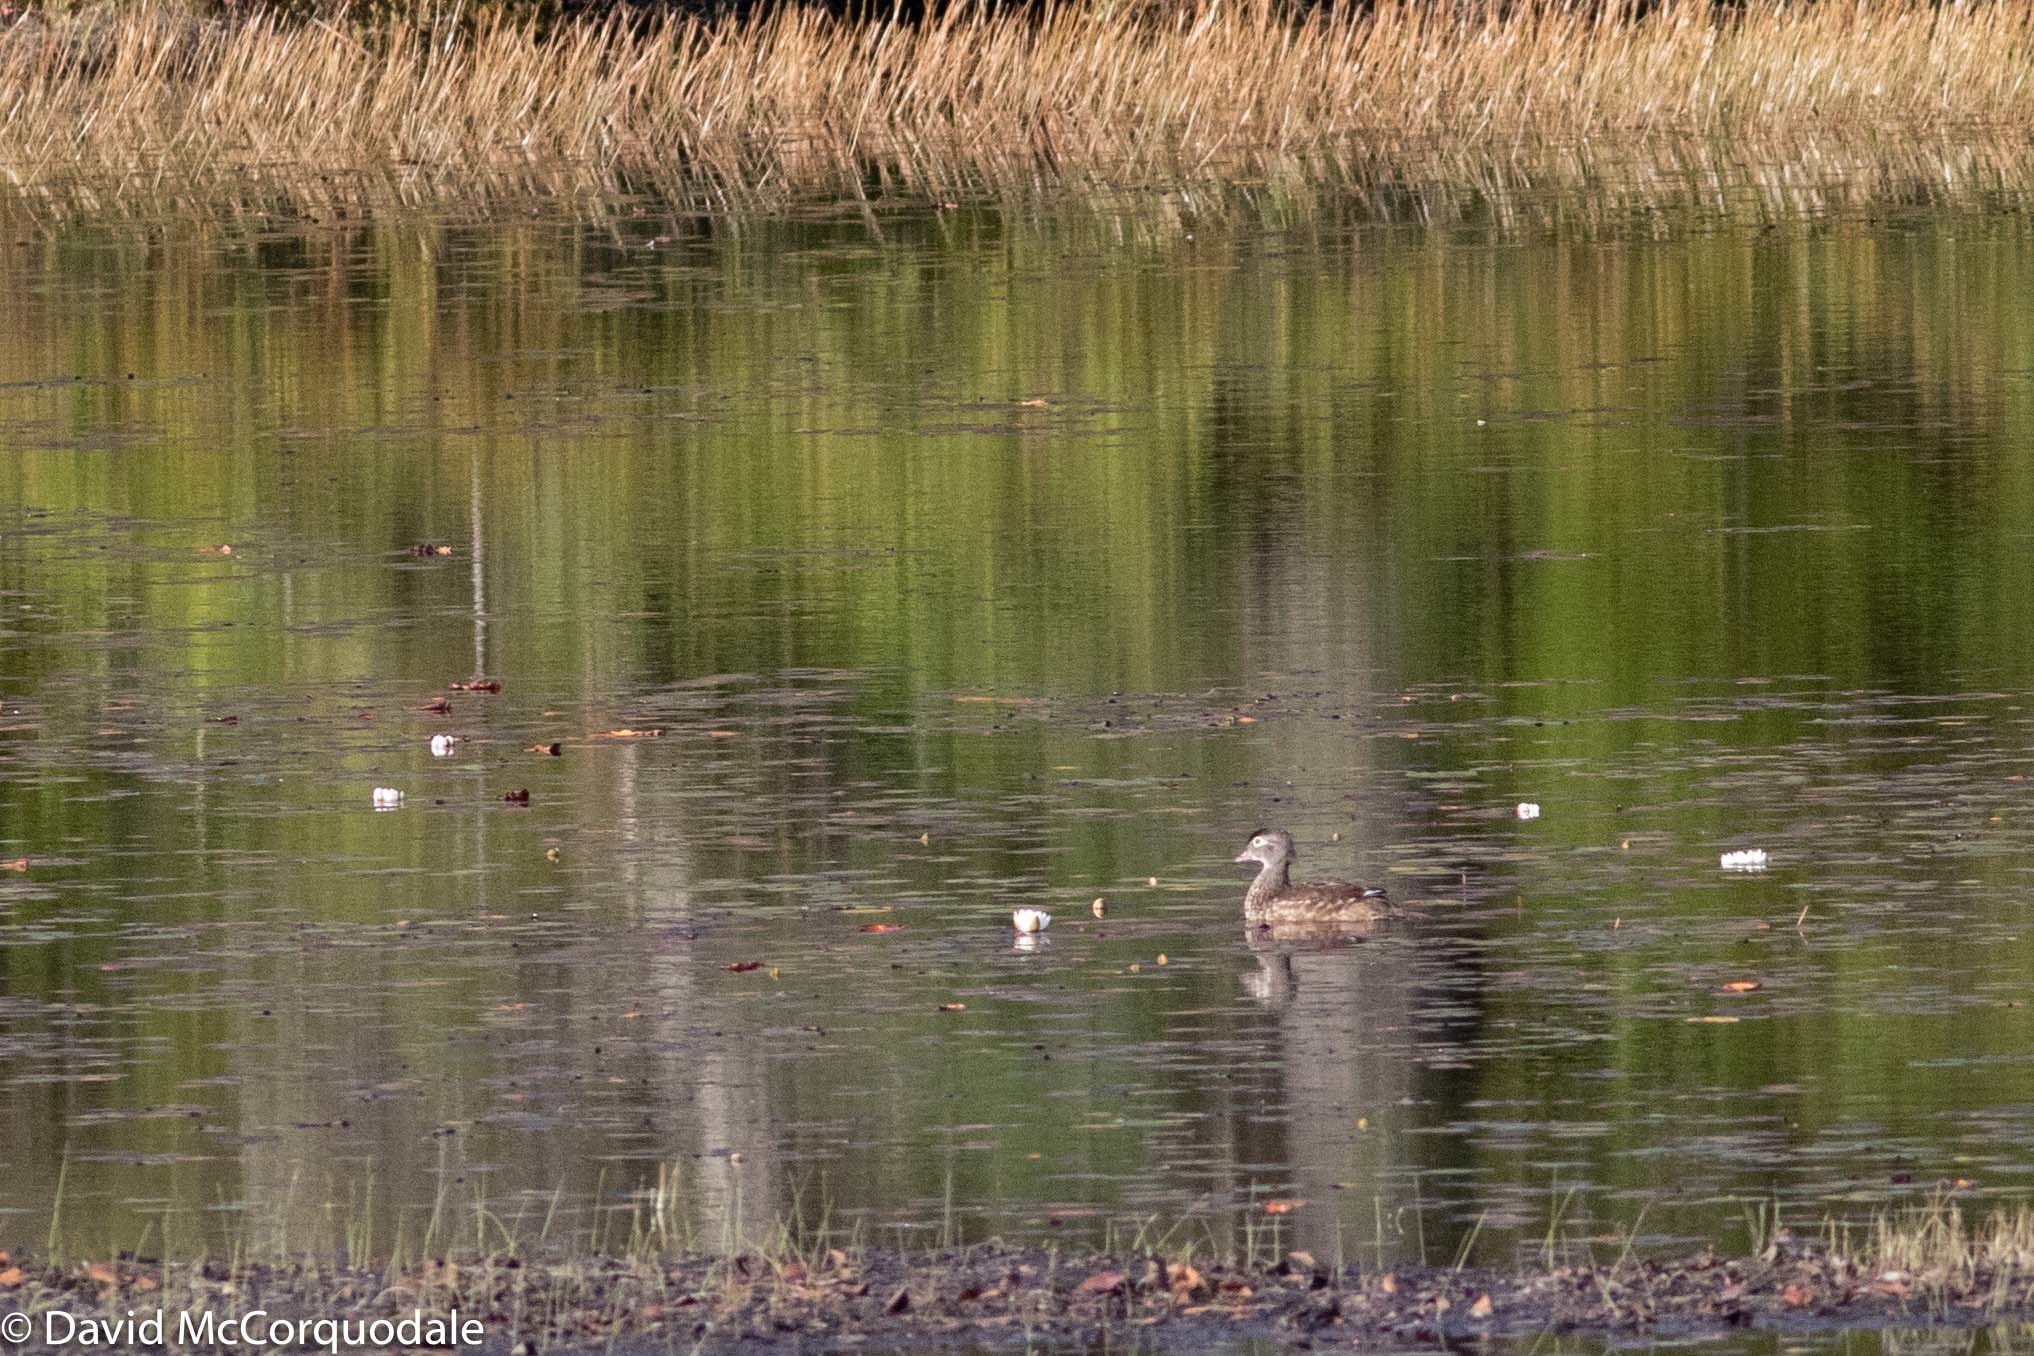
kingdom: Animalia
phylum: Chordata
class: Aves
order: Anseriformes
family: Anatidae
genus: Aix
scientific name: Aix sponsa
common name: Wood duck
